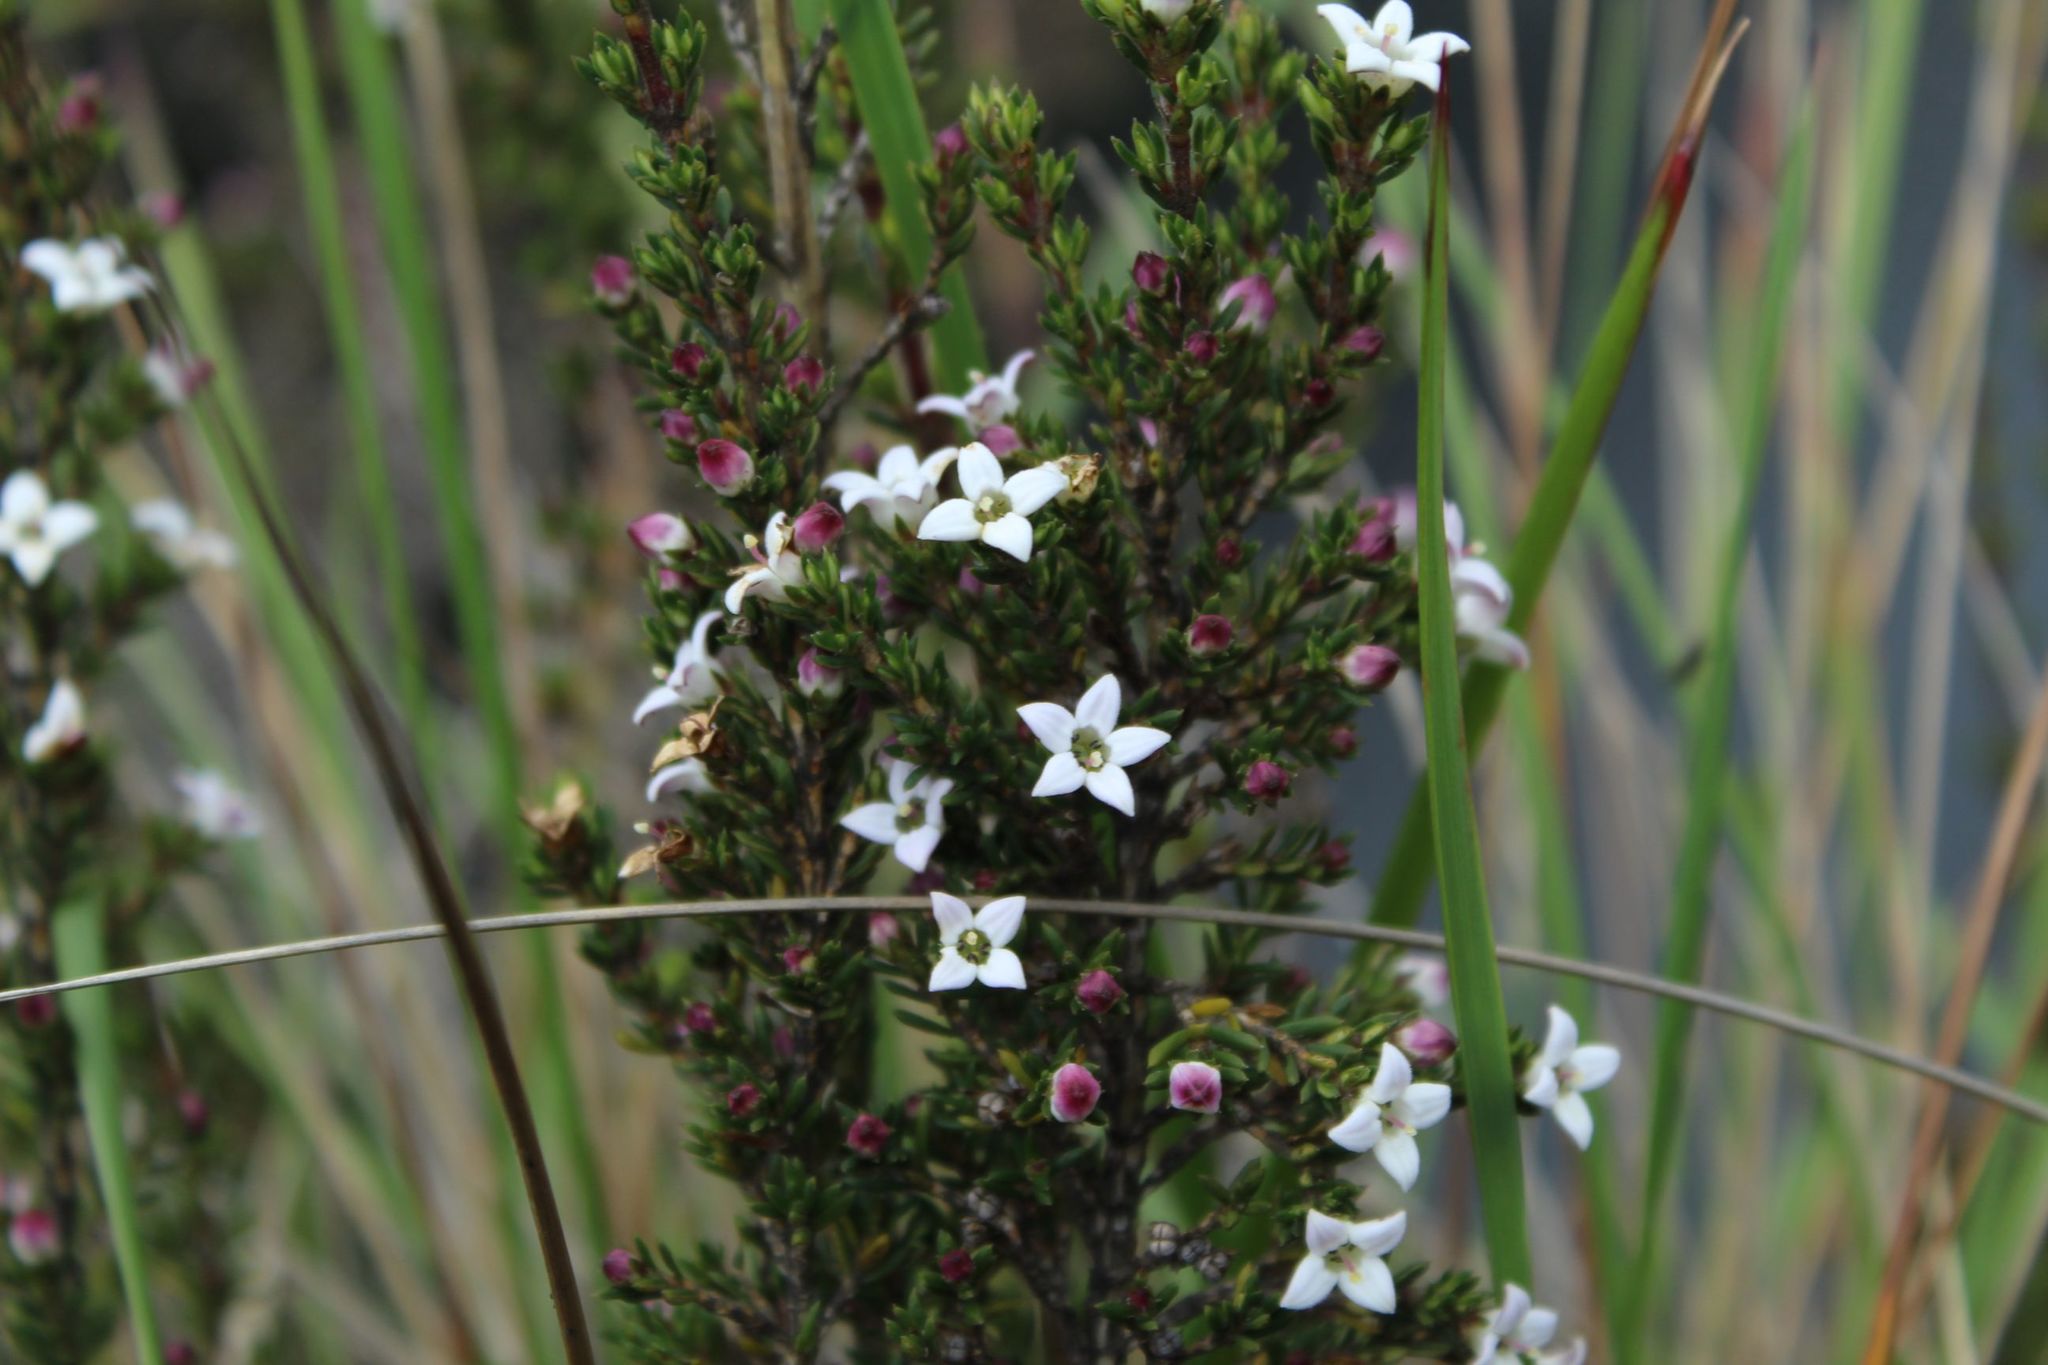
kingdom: Plantae
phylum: Tracheophyta
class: Magnoliopsida
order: Gentianales
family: Rubiaceae
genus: Arcytophyllum
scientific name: Arcytophyllum nitidum
